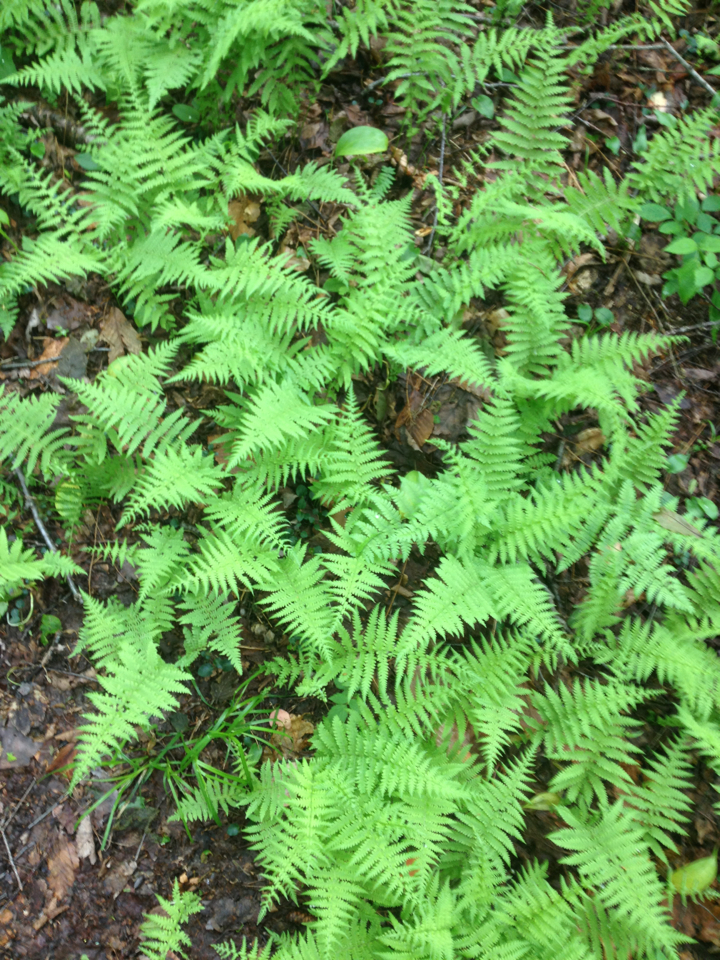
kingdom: Plantae
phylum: Tracheophyta
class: Polypodiopsida
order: Polypodiales
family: Thelypteridaceae
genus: Amauropelta
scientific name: Amauropelta noveboracensis
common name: New york fern
